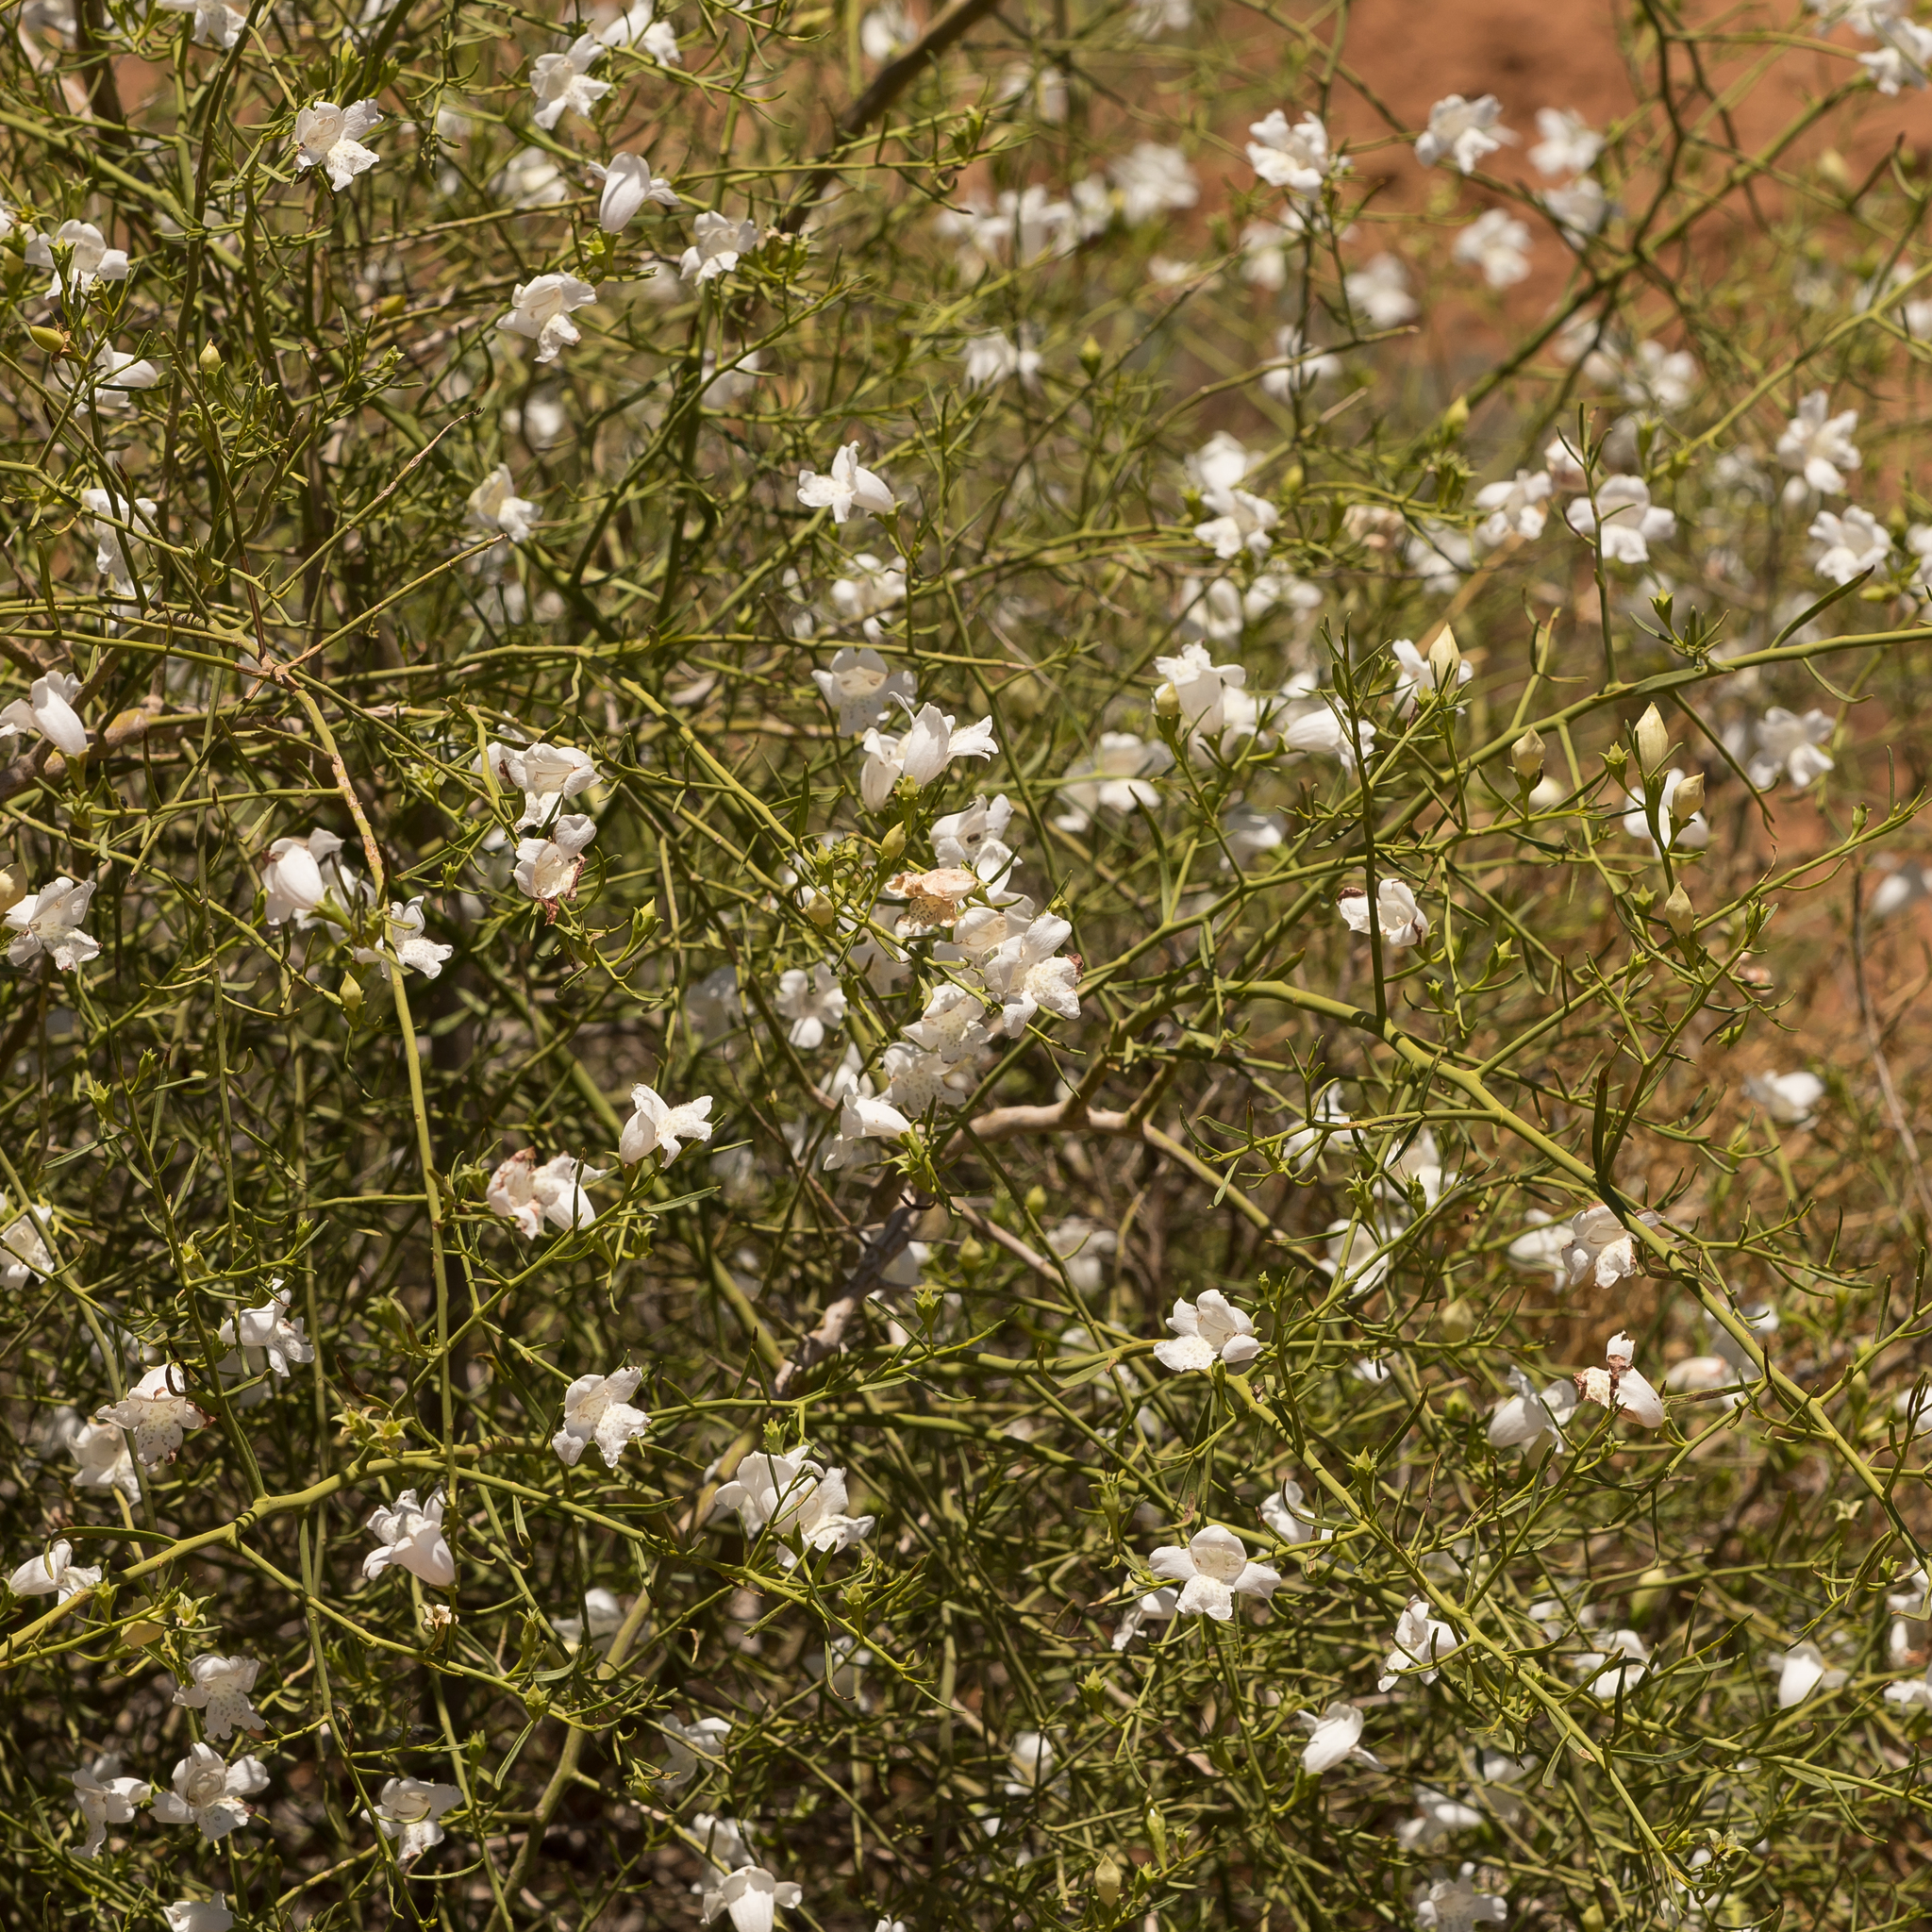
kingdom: Plantae
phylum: Tracheophyta
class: Magnoliopsida
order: Lamiales
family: Scrophulariaceae
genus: Eremophila
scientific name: Eremophila polyclada
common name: Lignum-fuchsia
